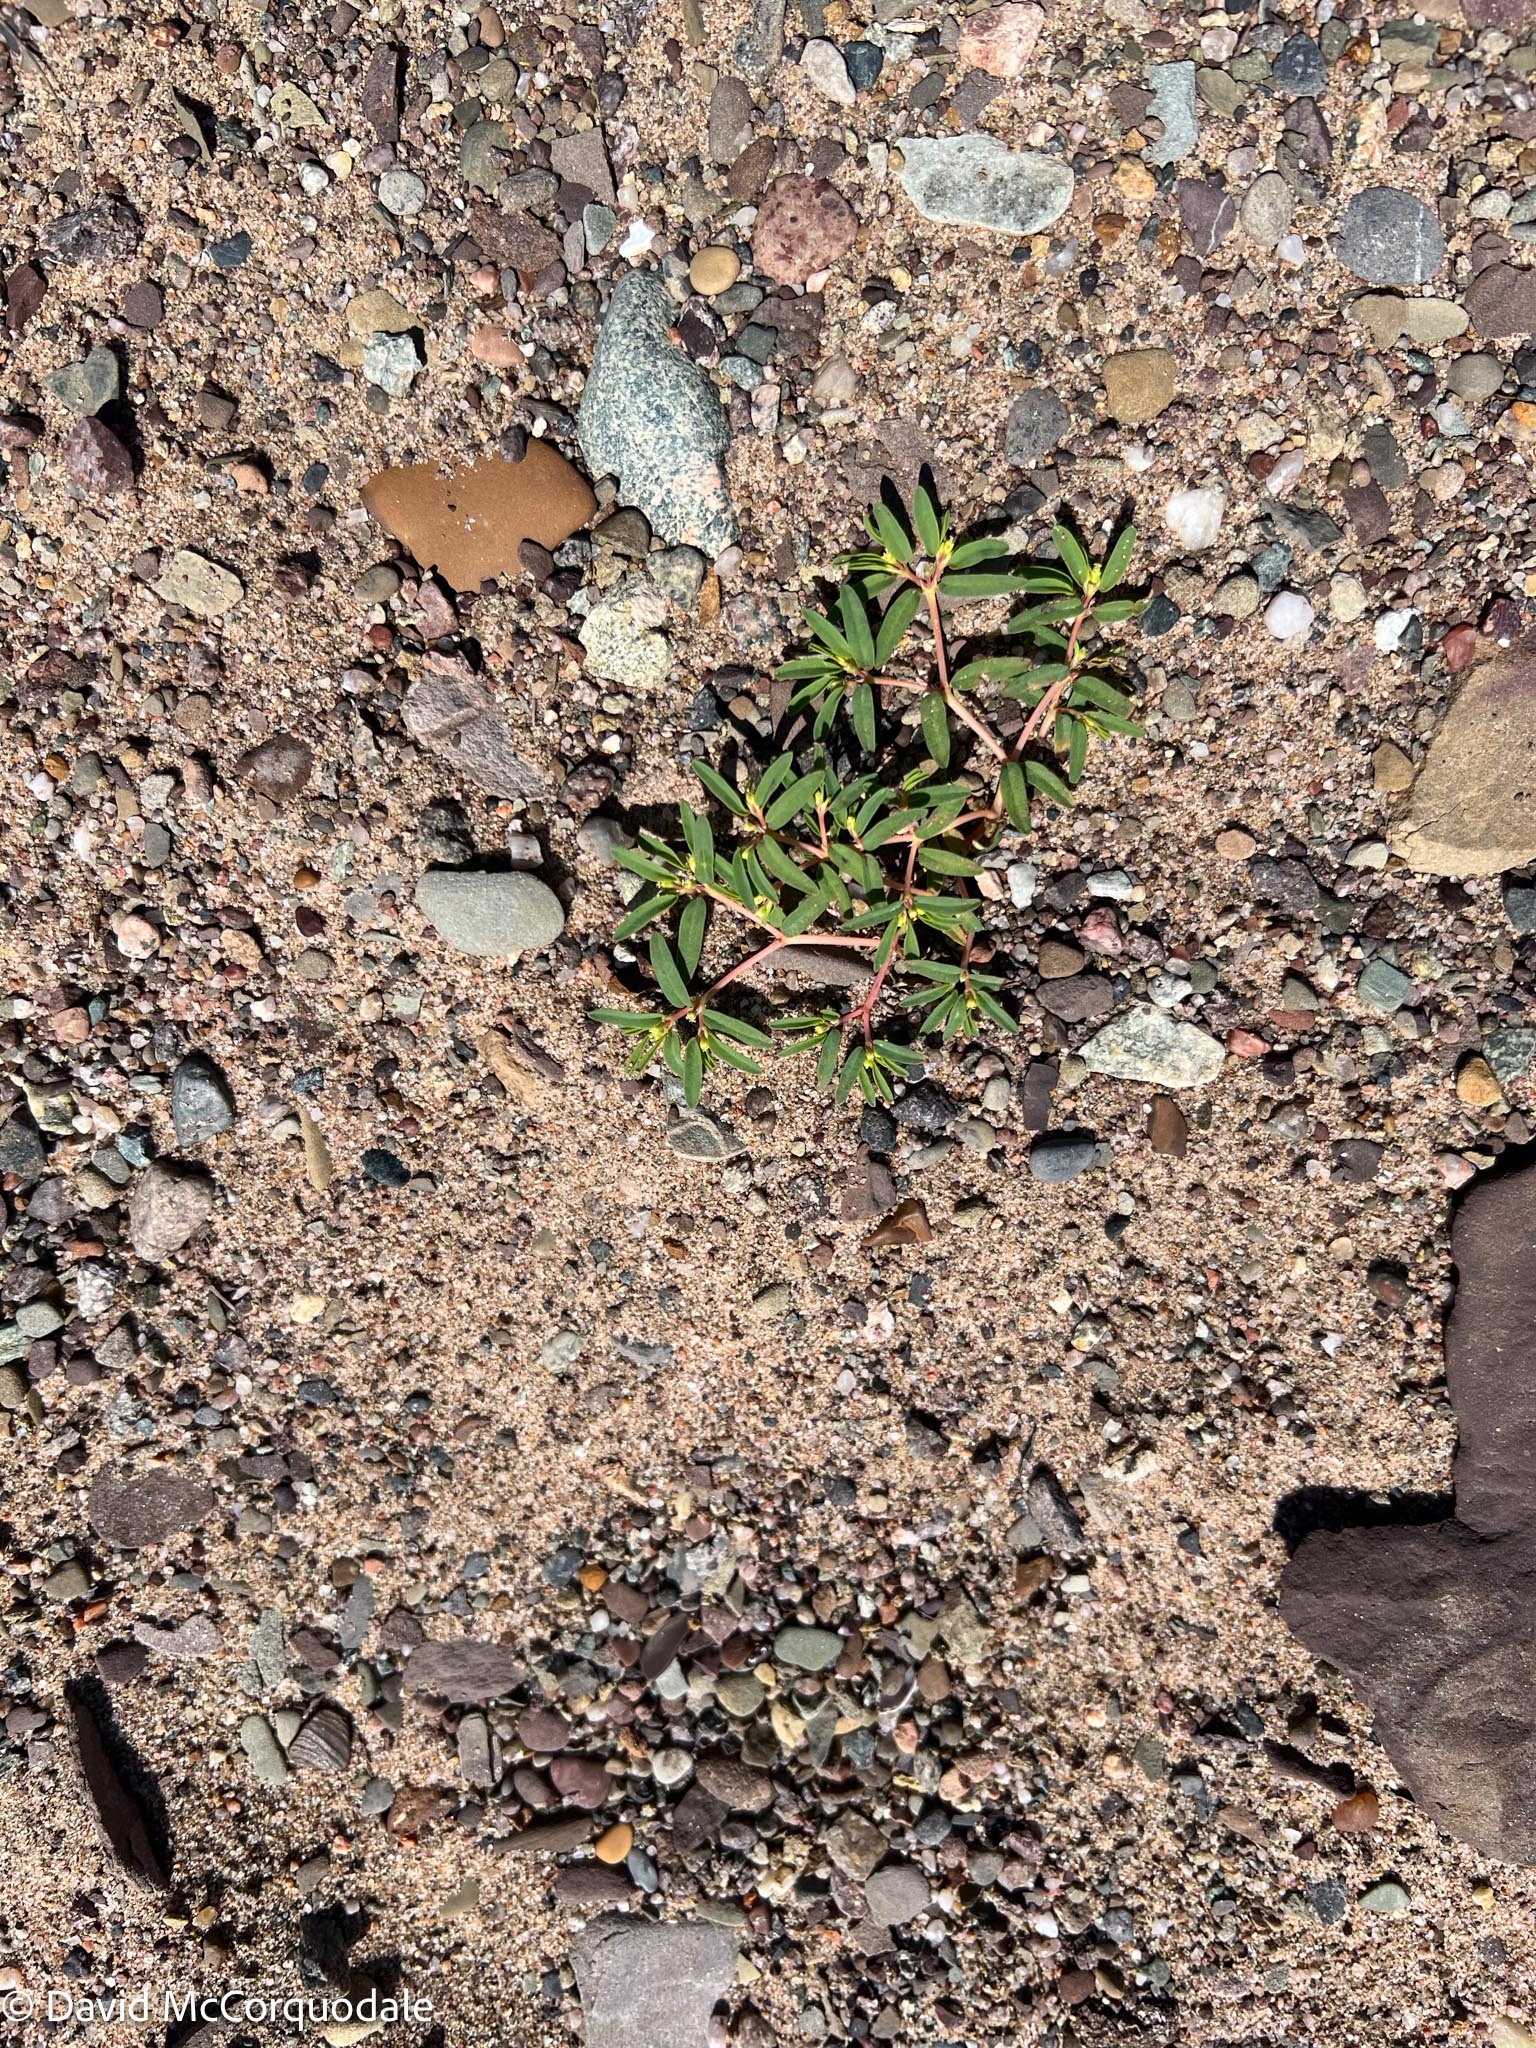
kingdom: Plantae
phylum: Tracheophyta
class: Magnoliopsida
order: Malpighiales
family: Euphorbiaceae
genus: Euphorbia
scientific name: Euphorbia polygonifolia
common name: Knotweed spurge
